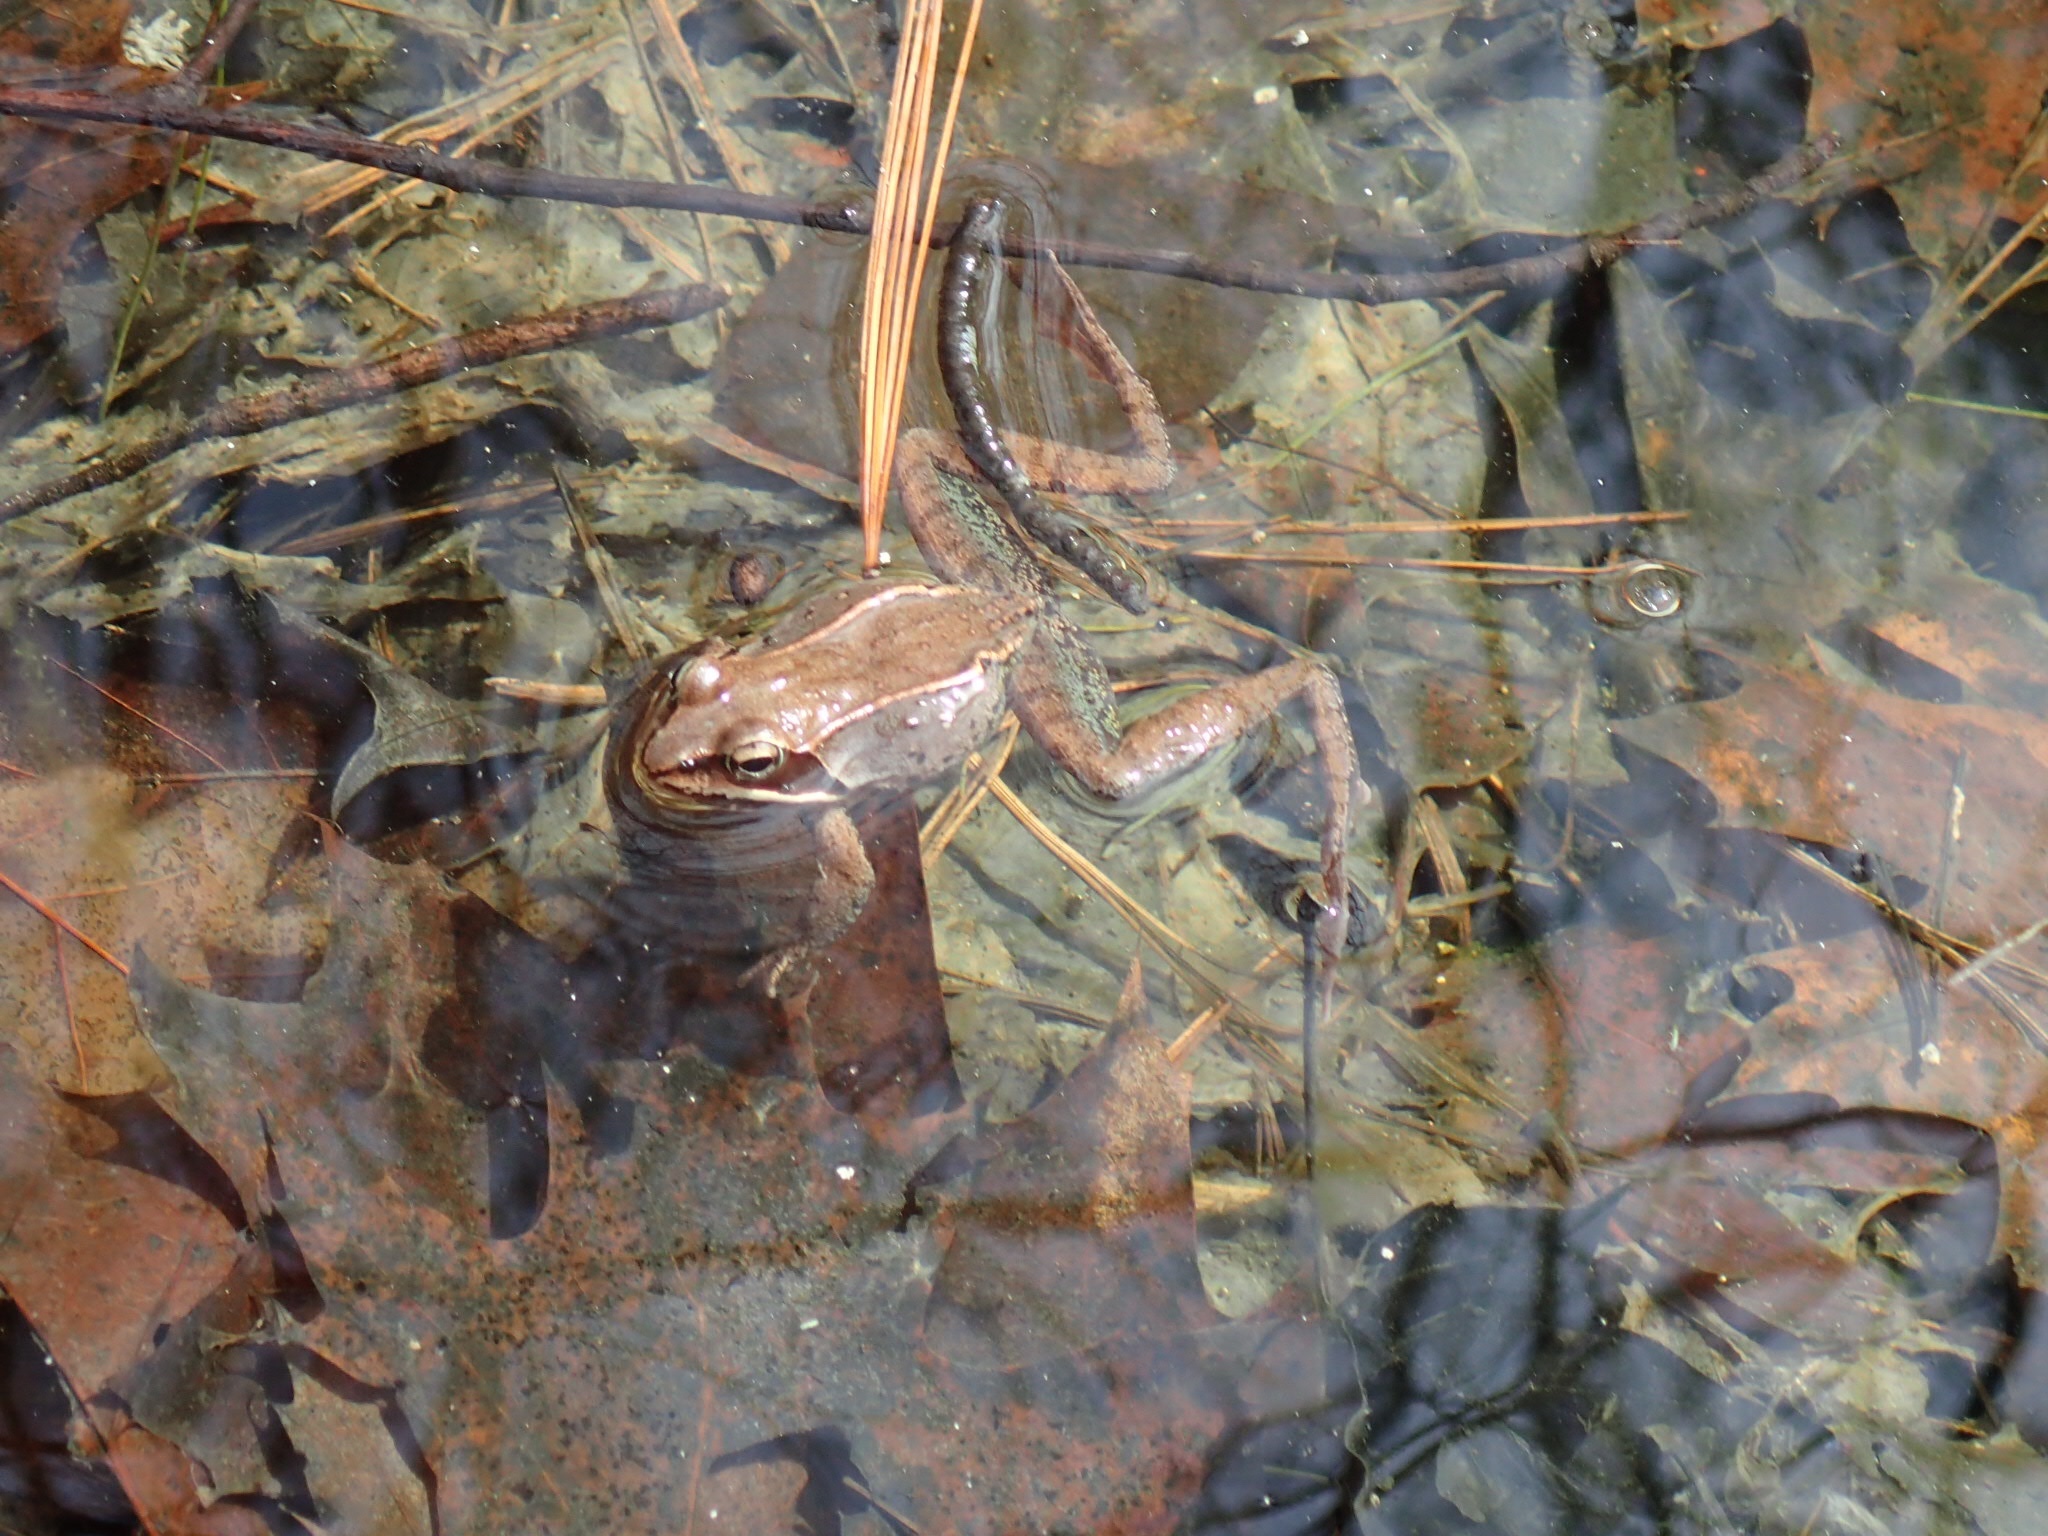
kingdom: Animalia
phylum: Chordata
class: Amphibia
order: Anura
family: Ranidae
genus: Lithobates
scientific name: Lithobates sylvaticus
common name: Wood frog
